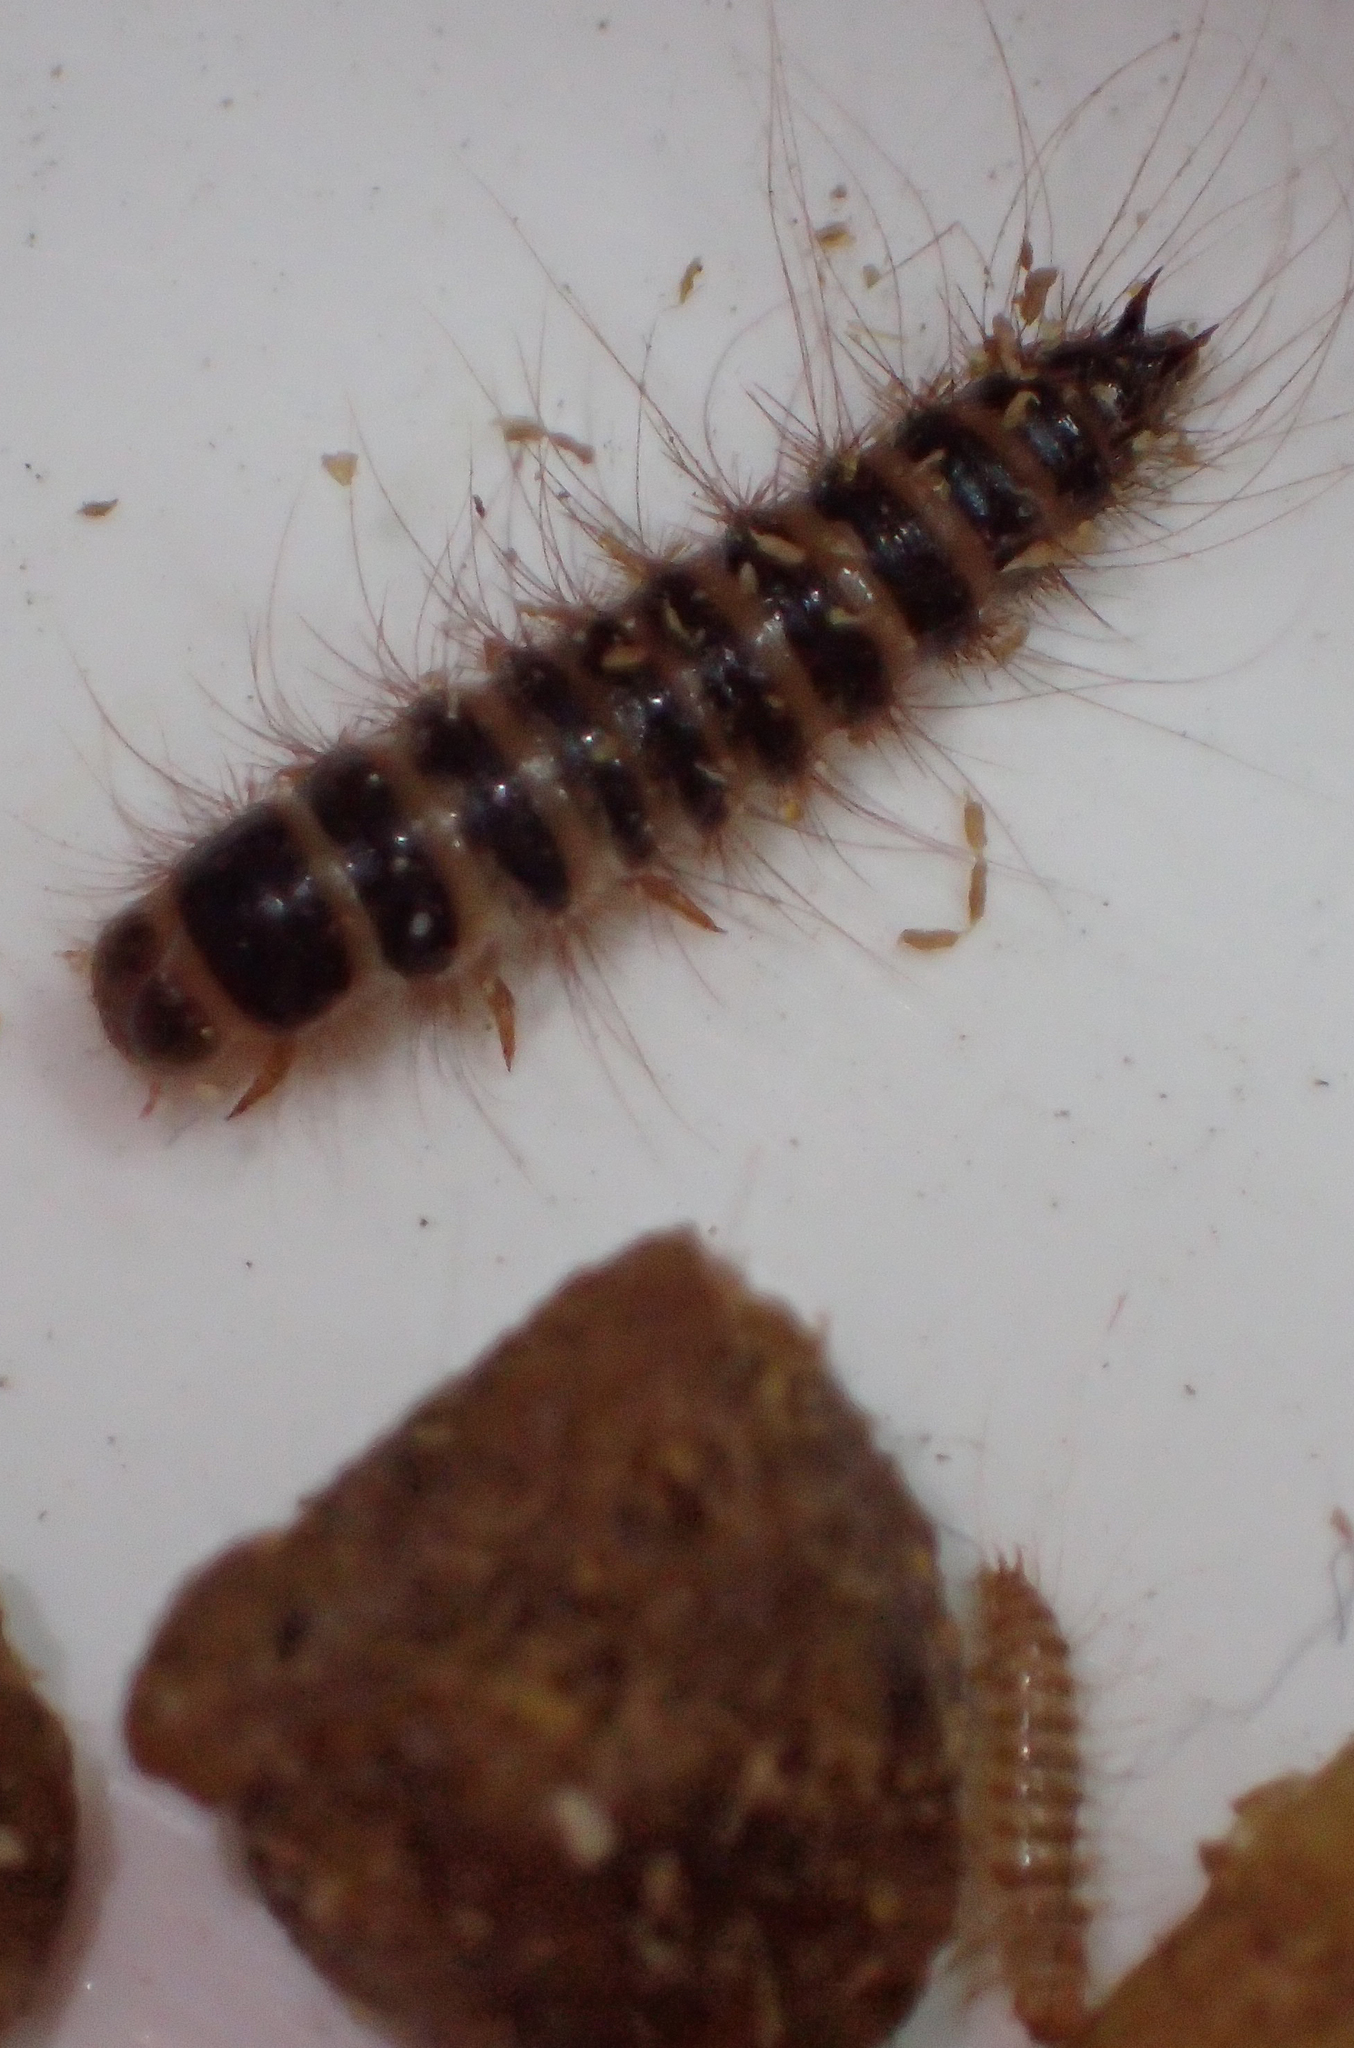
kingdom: Animalia
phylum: Arthropoda
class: Insecta
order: Coleoptera
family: Dermestidae
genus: Dermestes
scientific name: Dermestes lardarius
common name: Larder beetle
